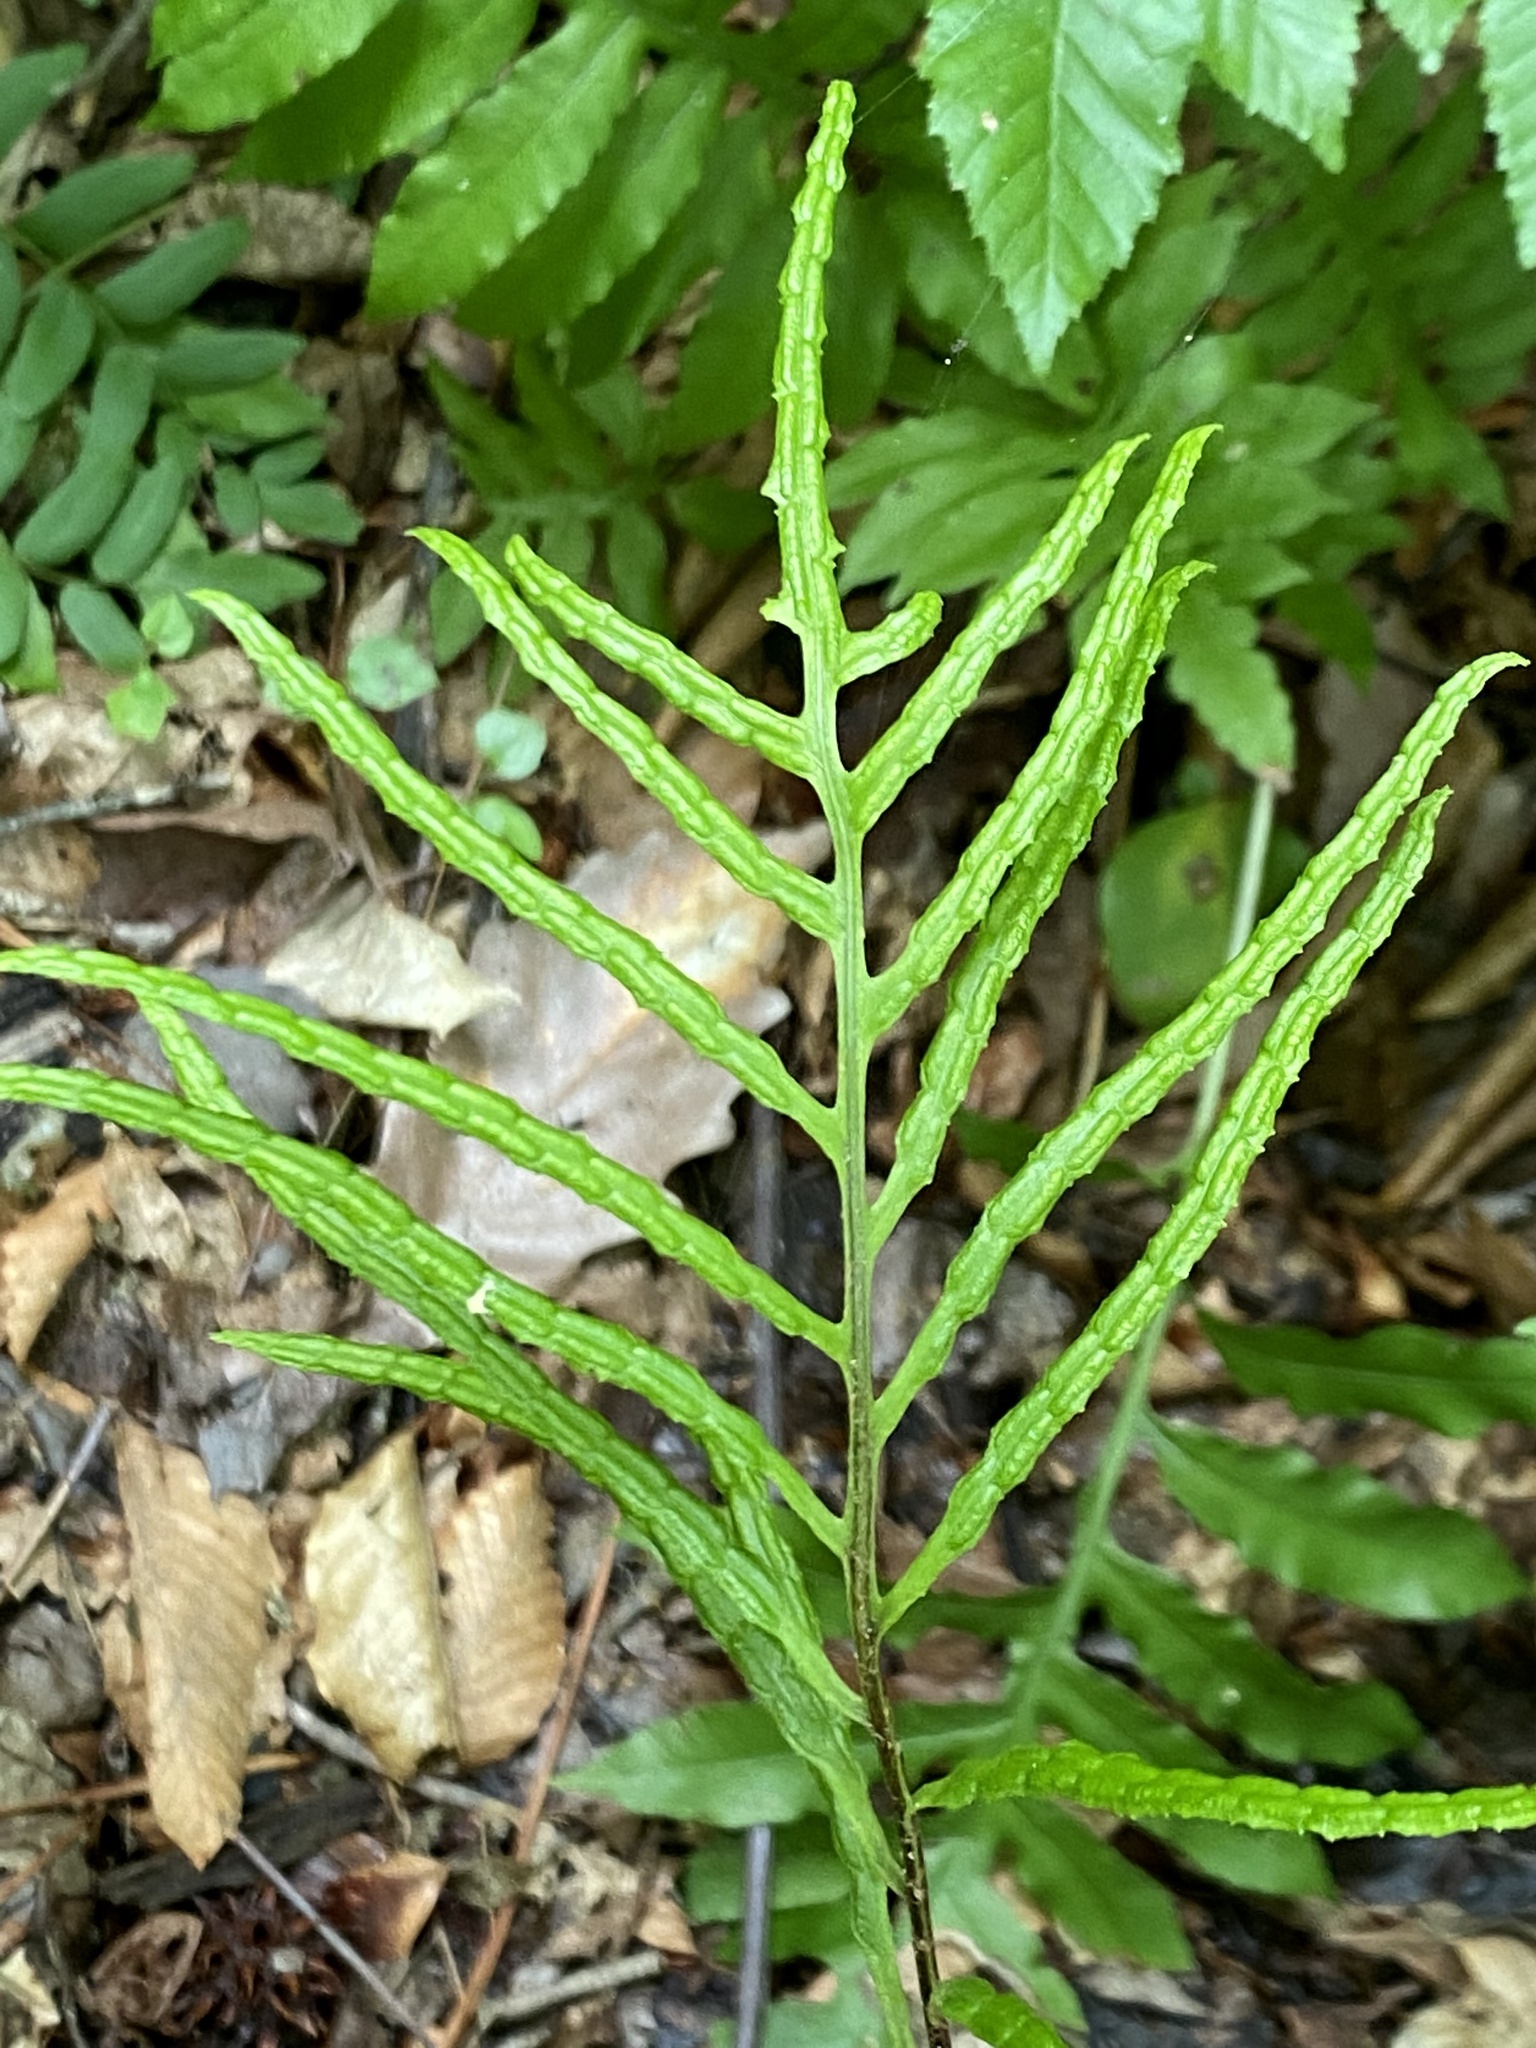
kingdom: Plantae
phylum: Tracheophyta
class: Polypodiopsida
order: Polypodiales
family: Blechnaceae
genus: Lorinseria
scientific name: Lorinseria areolata
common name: Dwarf chain fern
